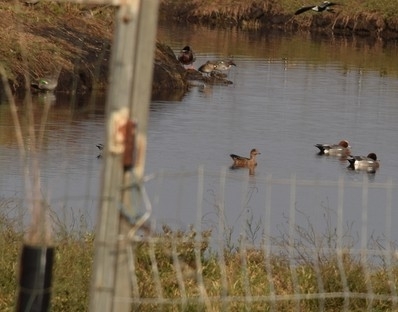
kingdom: Animalia
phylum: Chordata
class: Aves
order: Anseriformes
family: Anatidae
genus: Mareca
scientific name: Mareca penelope
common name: Eurasian wigeon
